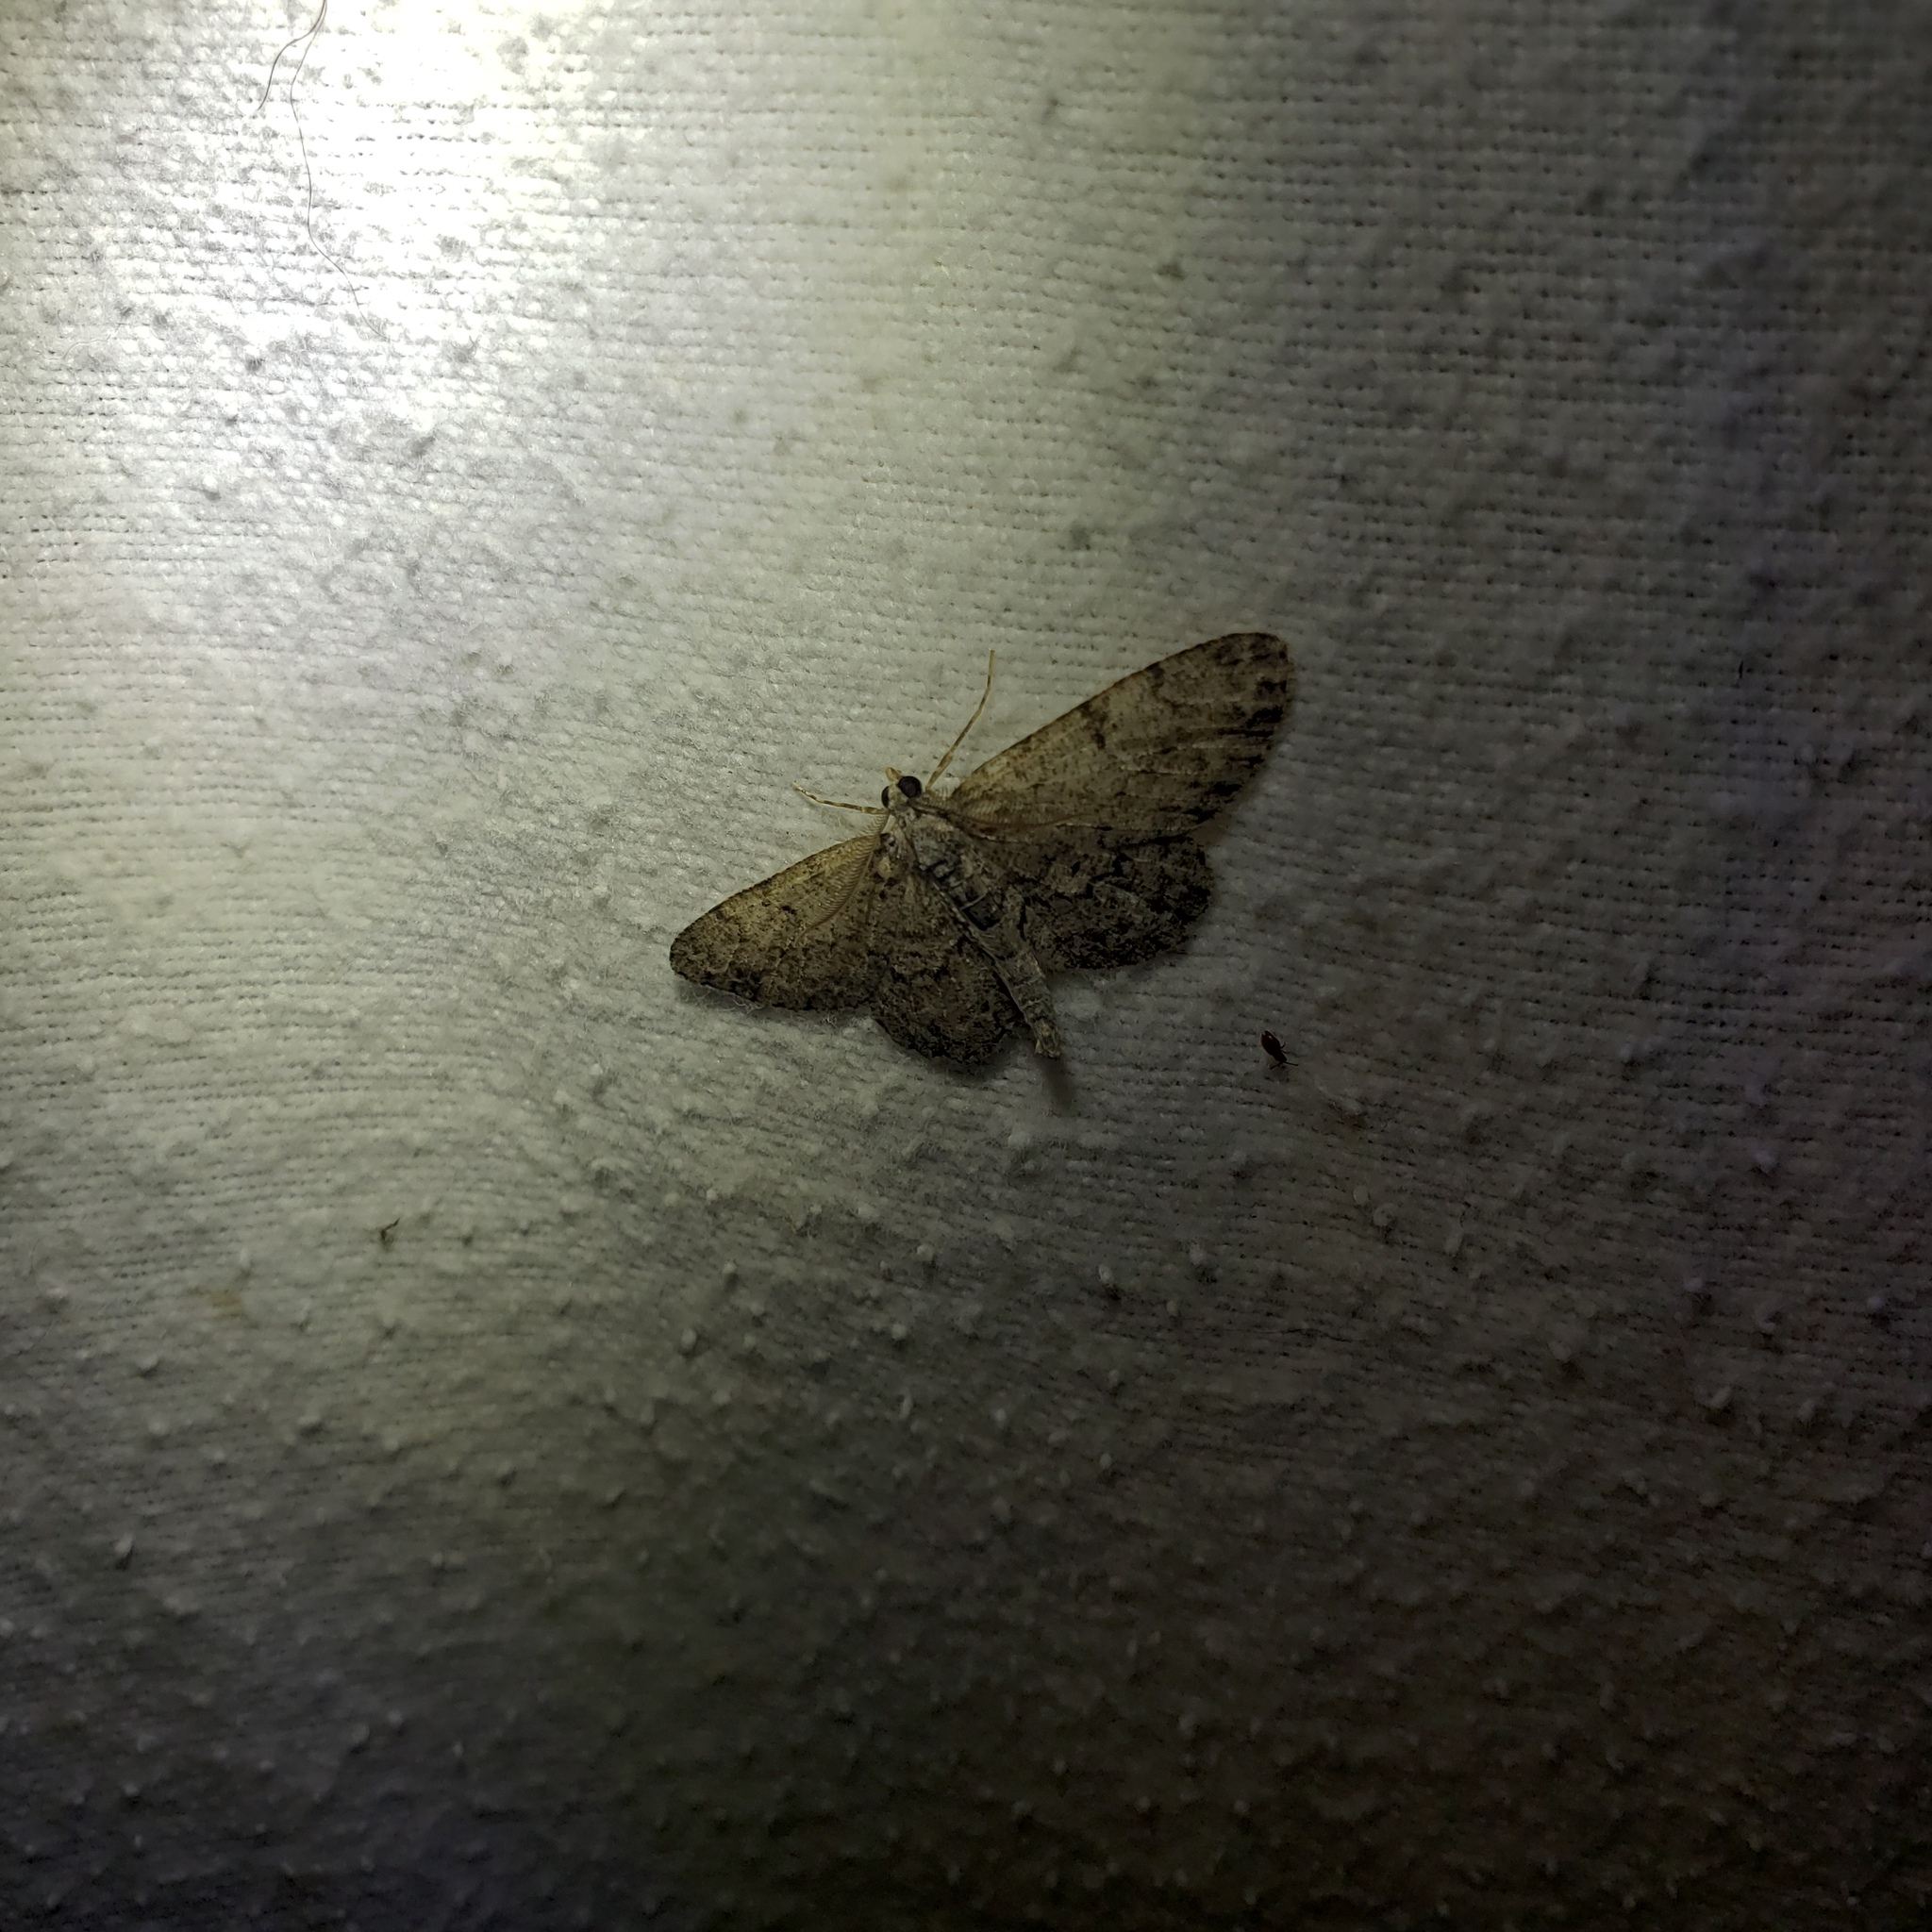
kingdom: Animalia
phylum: Arthropoda
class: Insecta
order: Lepidoptera
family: Geometridae
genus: Protoboarmia
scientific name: Protoboarmia porcelaria
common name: Porcelain gray
